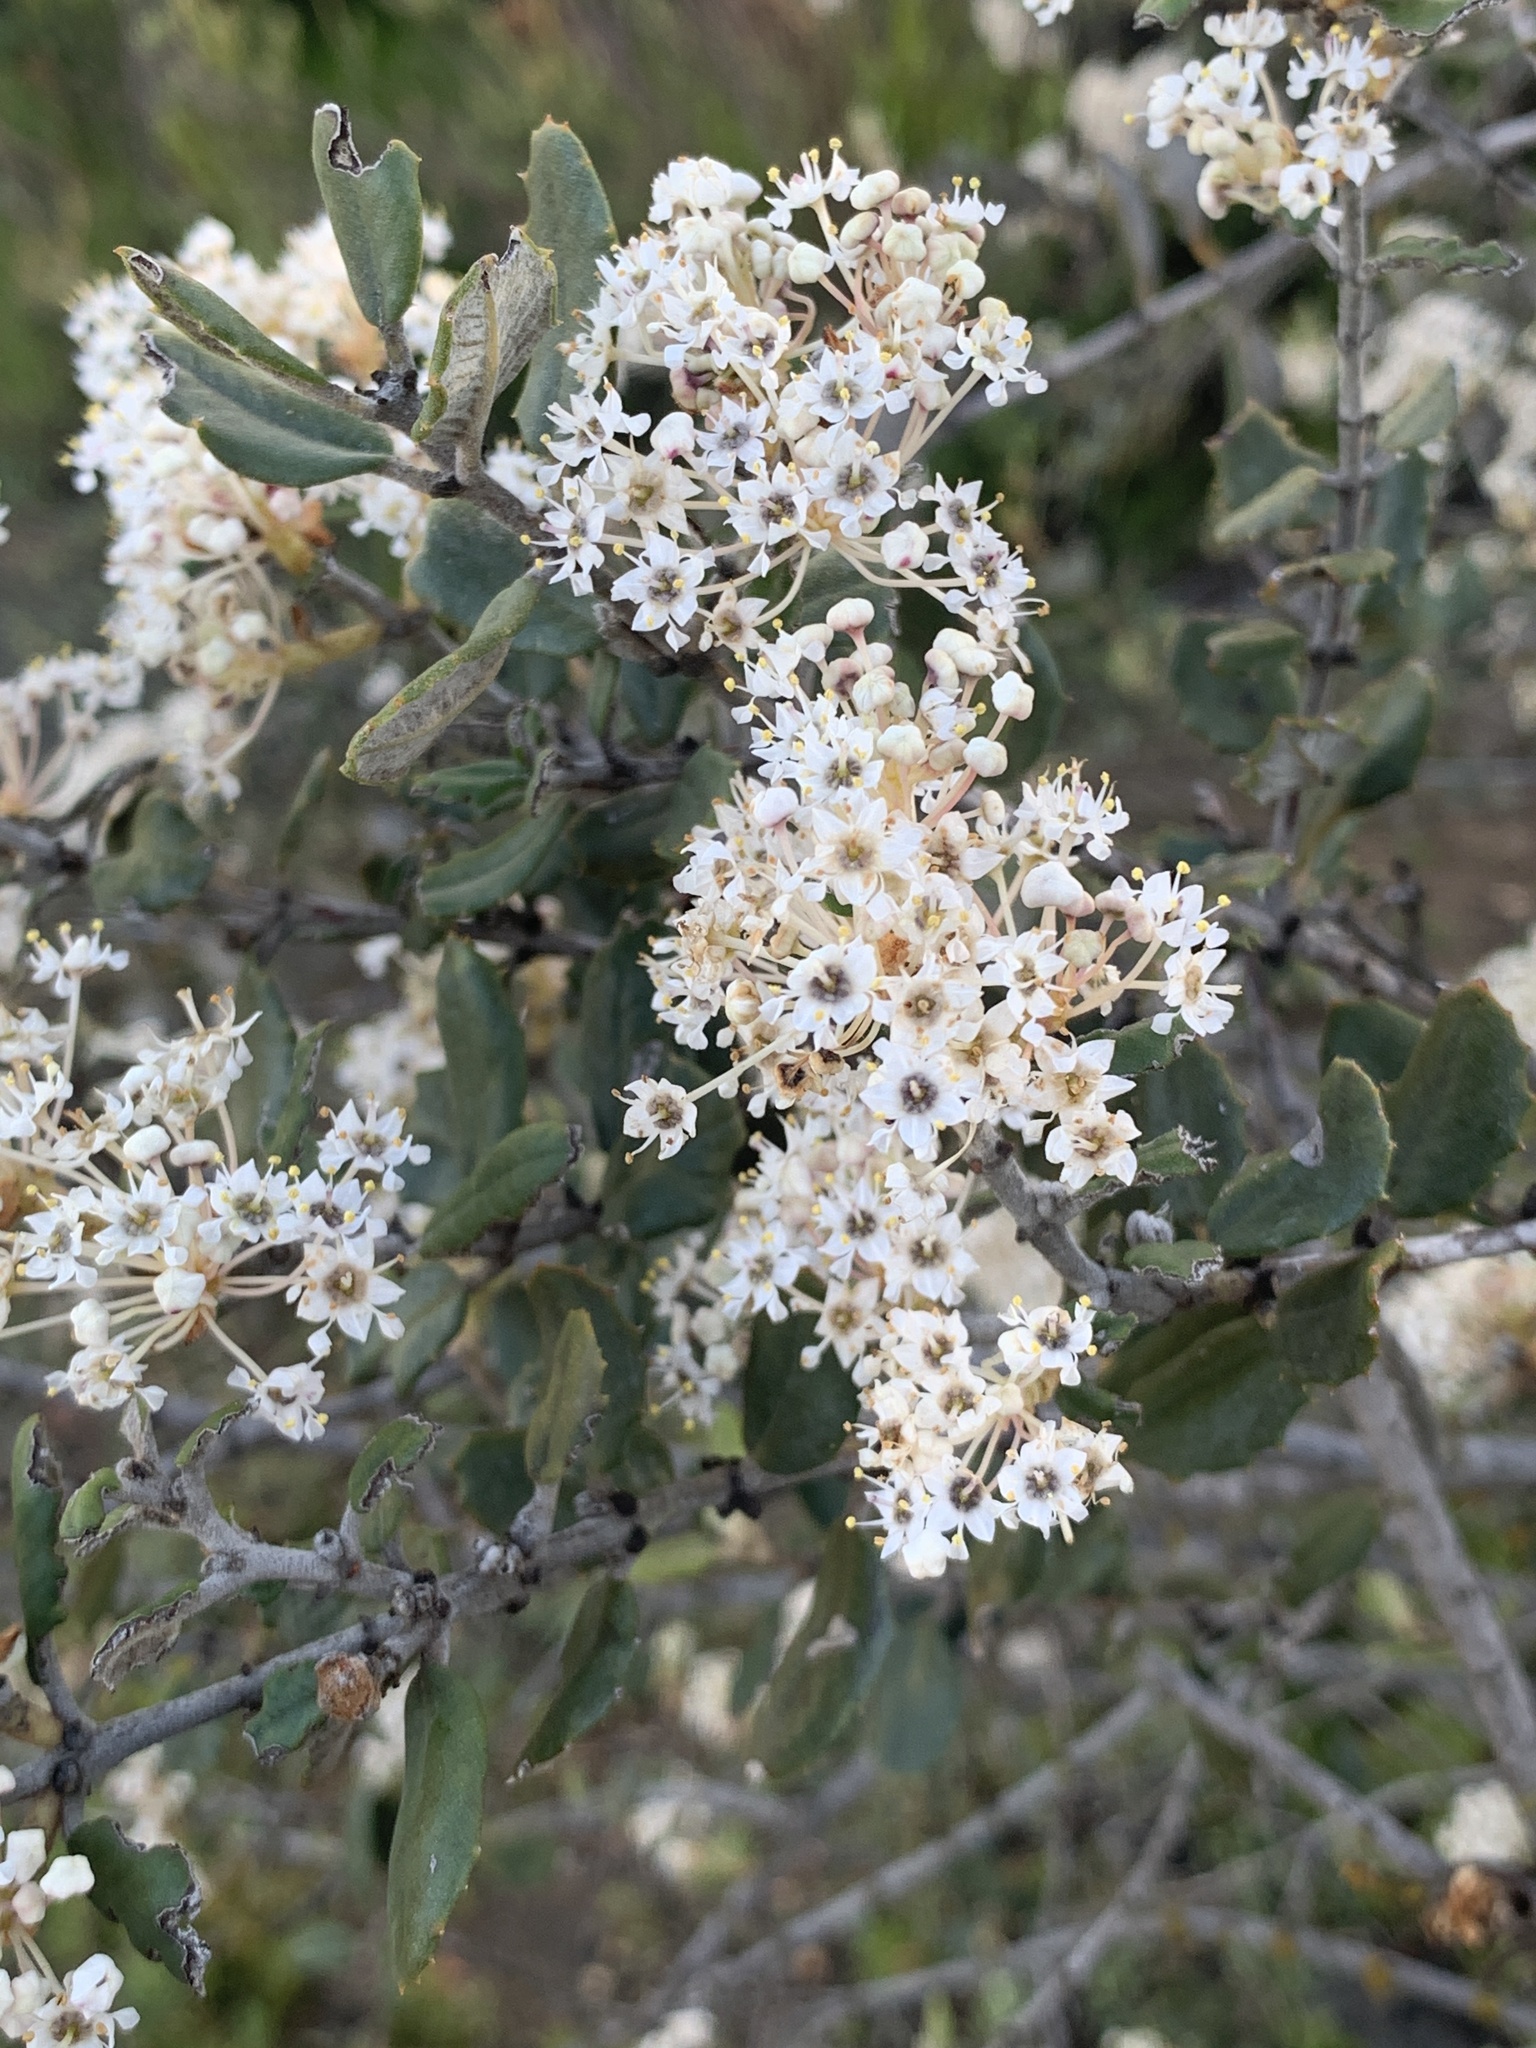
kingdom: Plantae
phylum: Tracheophyta
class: Magnoliopsida
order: Rosales
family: Rhamnaceae
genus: Ceanothus
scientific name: Ceanothus crassifolius
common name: Hoaryleaf ceanothus
